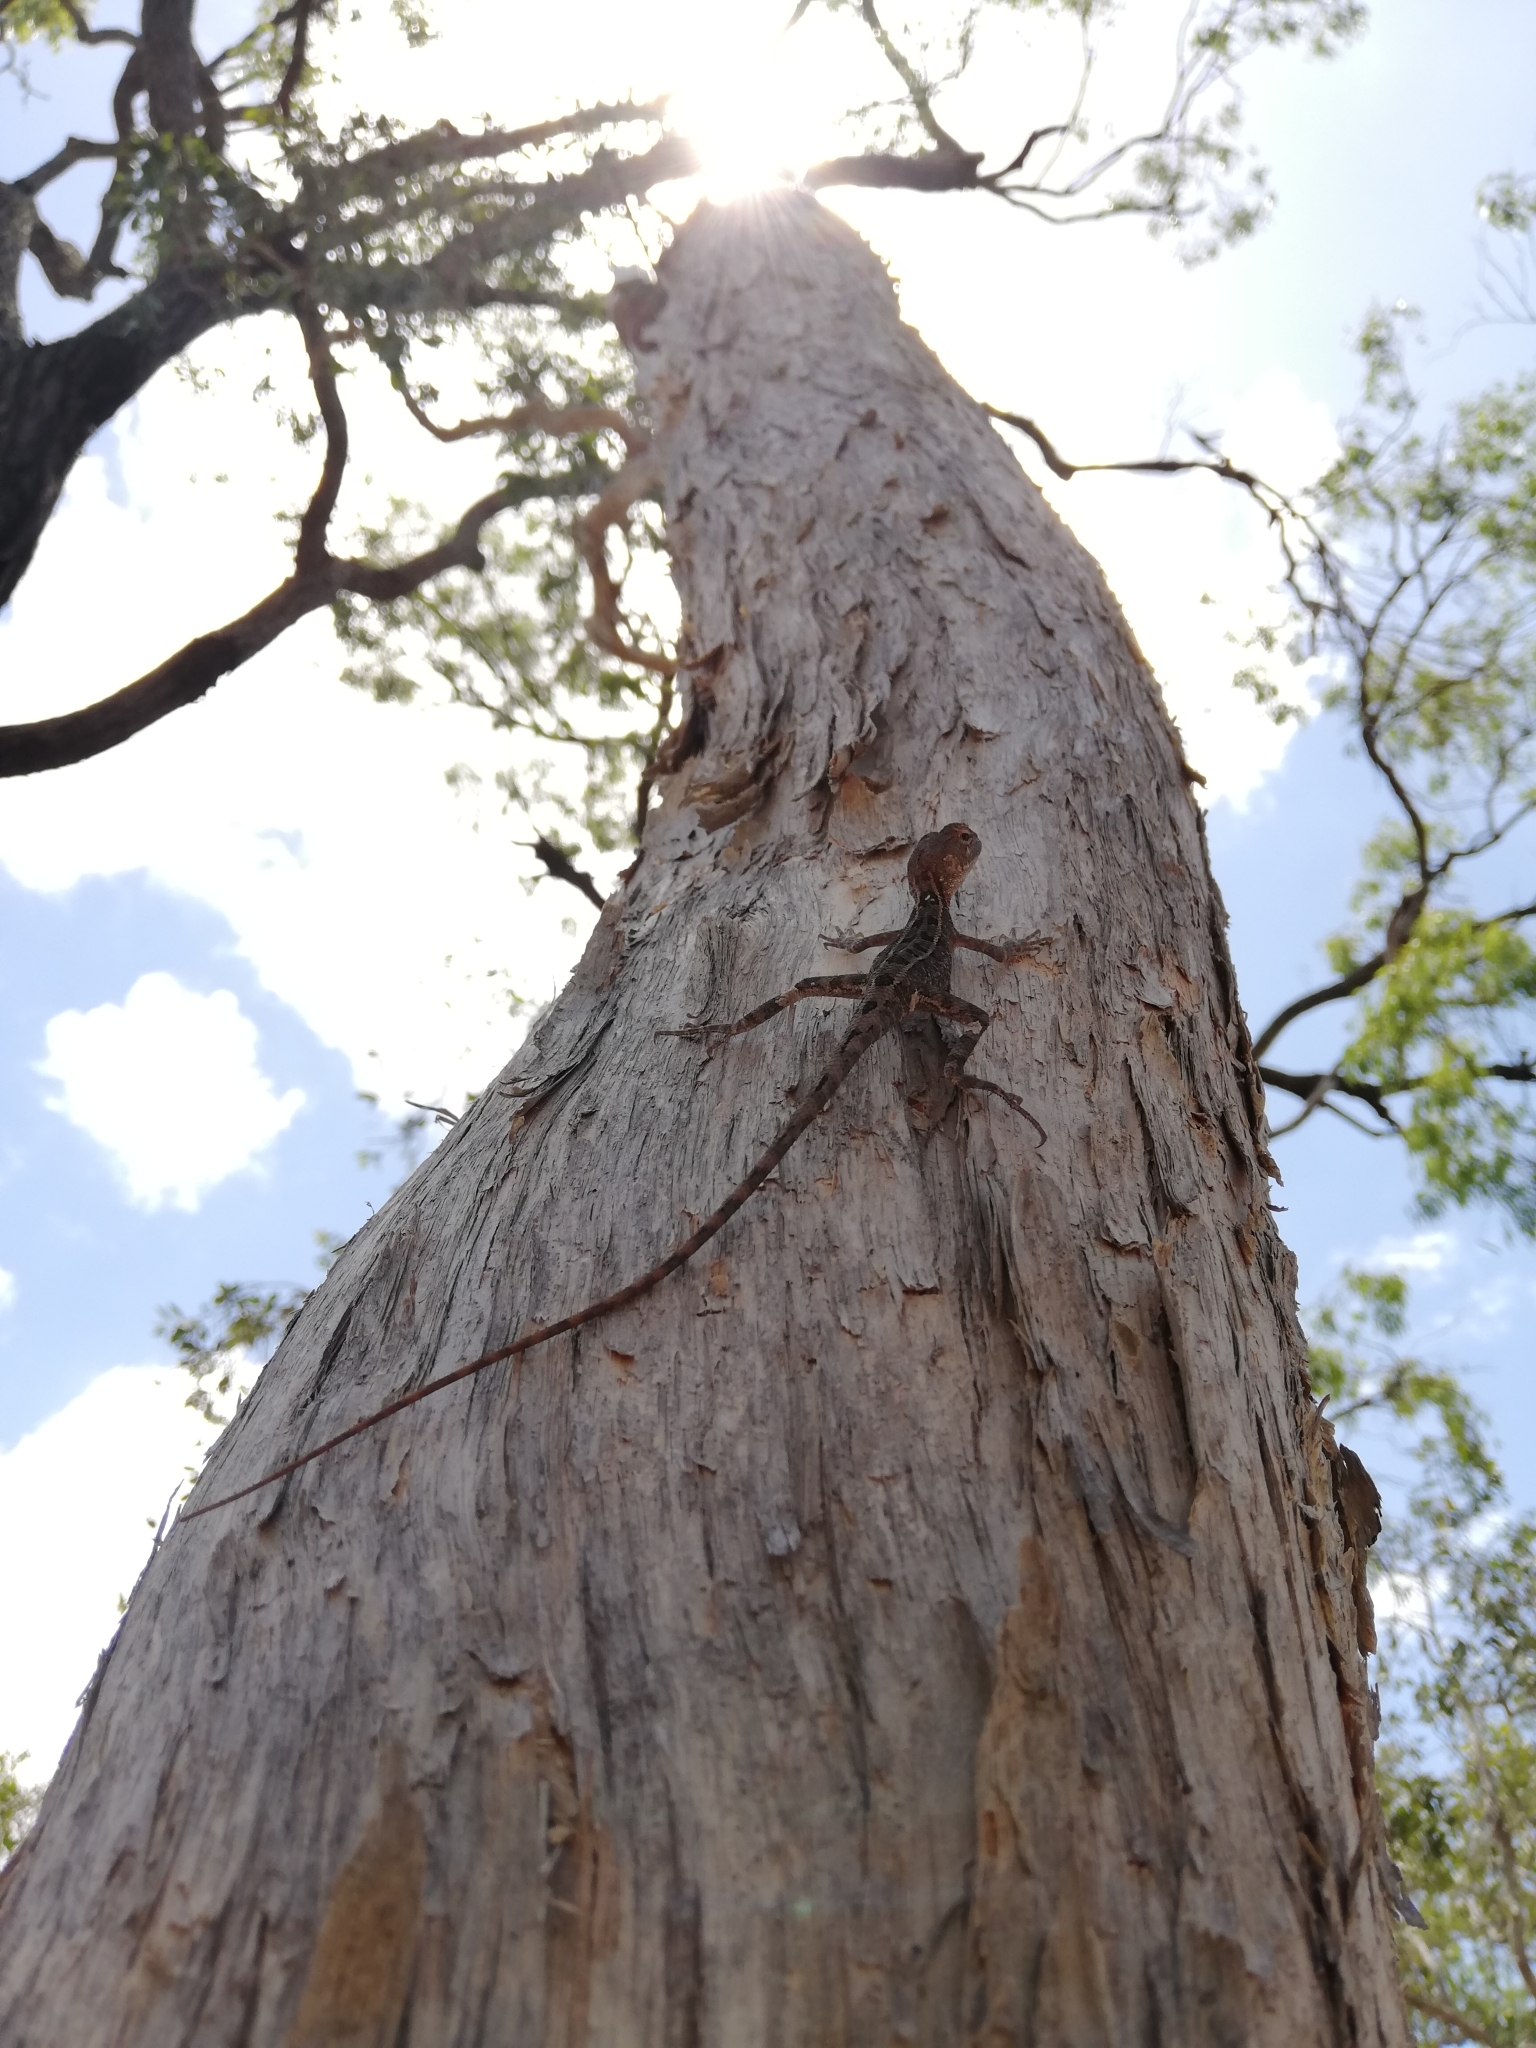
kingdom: Animalia
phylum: Chordata
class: Squamata
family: Agamidae
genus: Diporiphora
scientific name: Diporiphora australis
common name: Eastern two-line dragon
